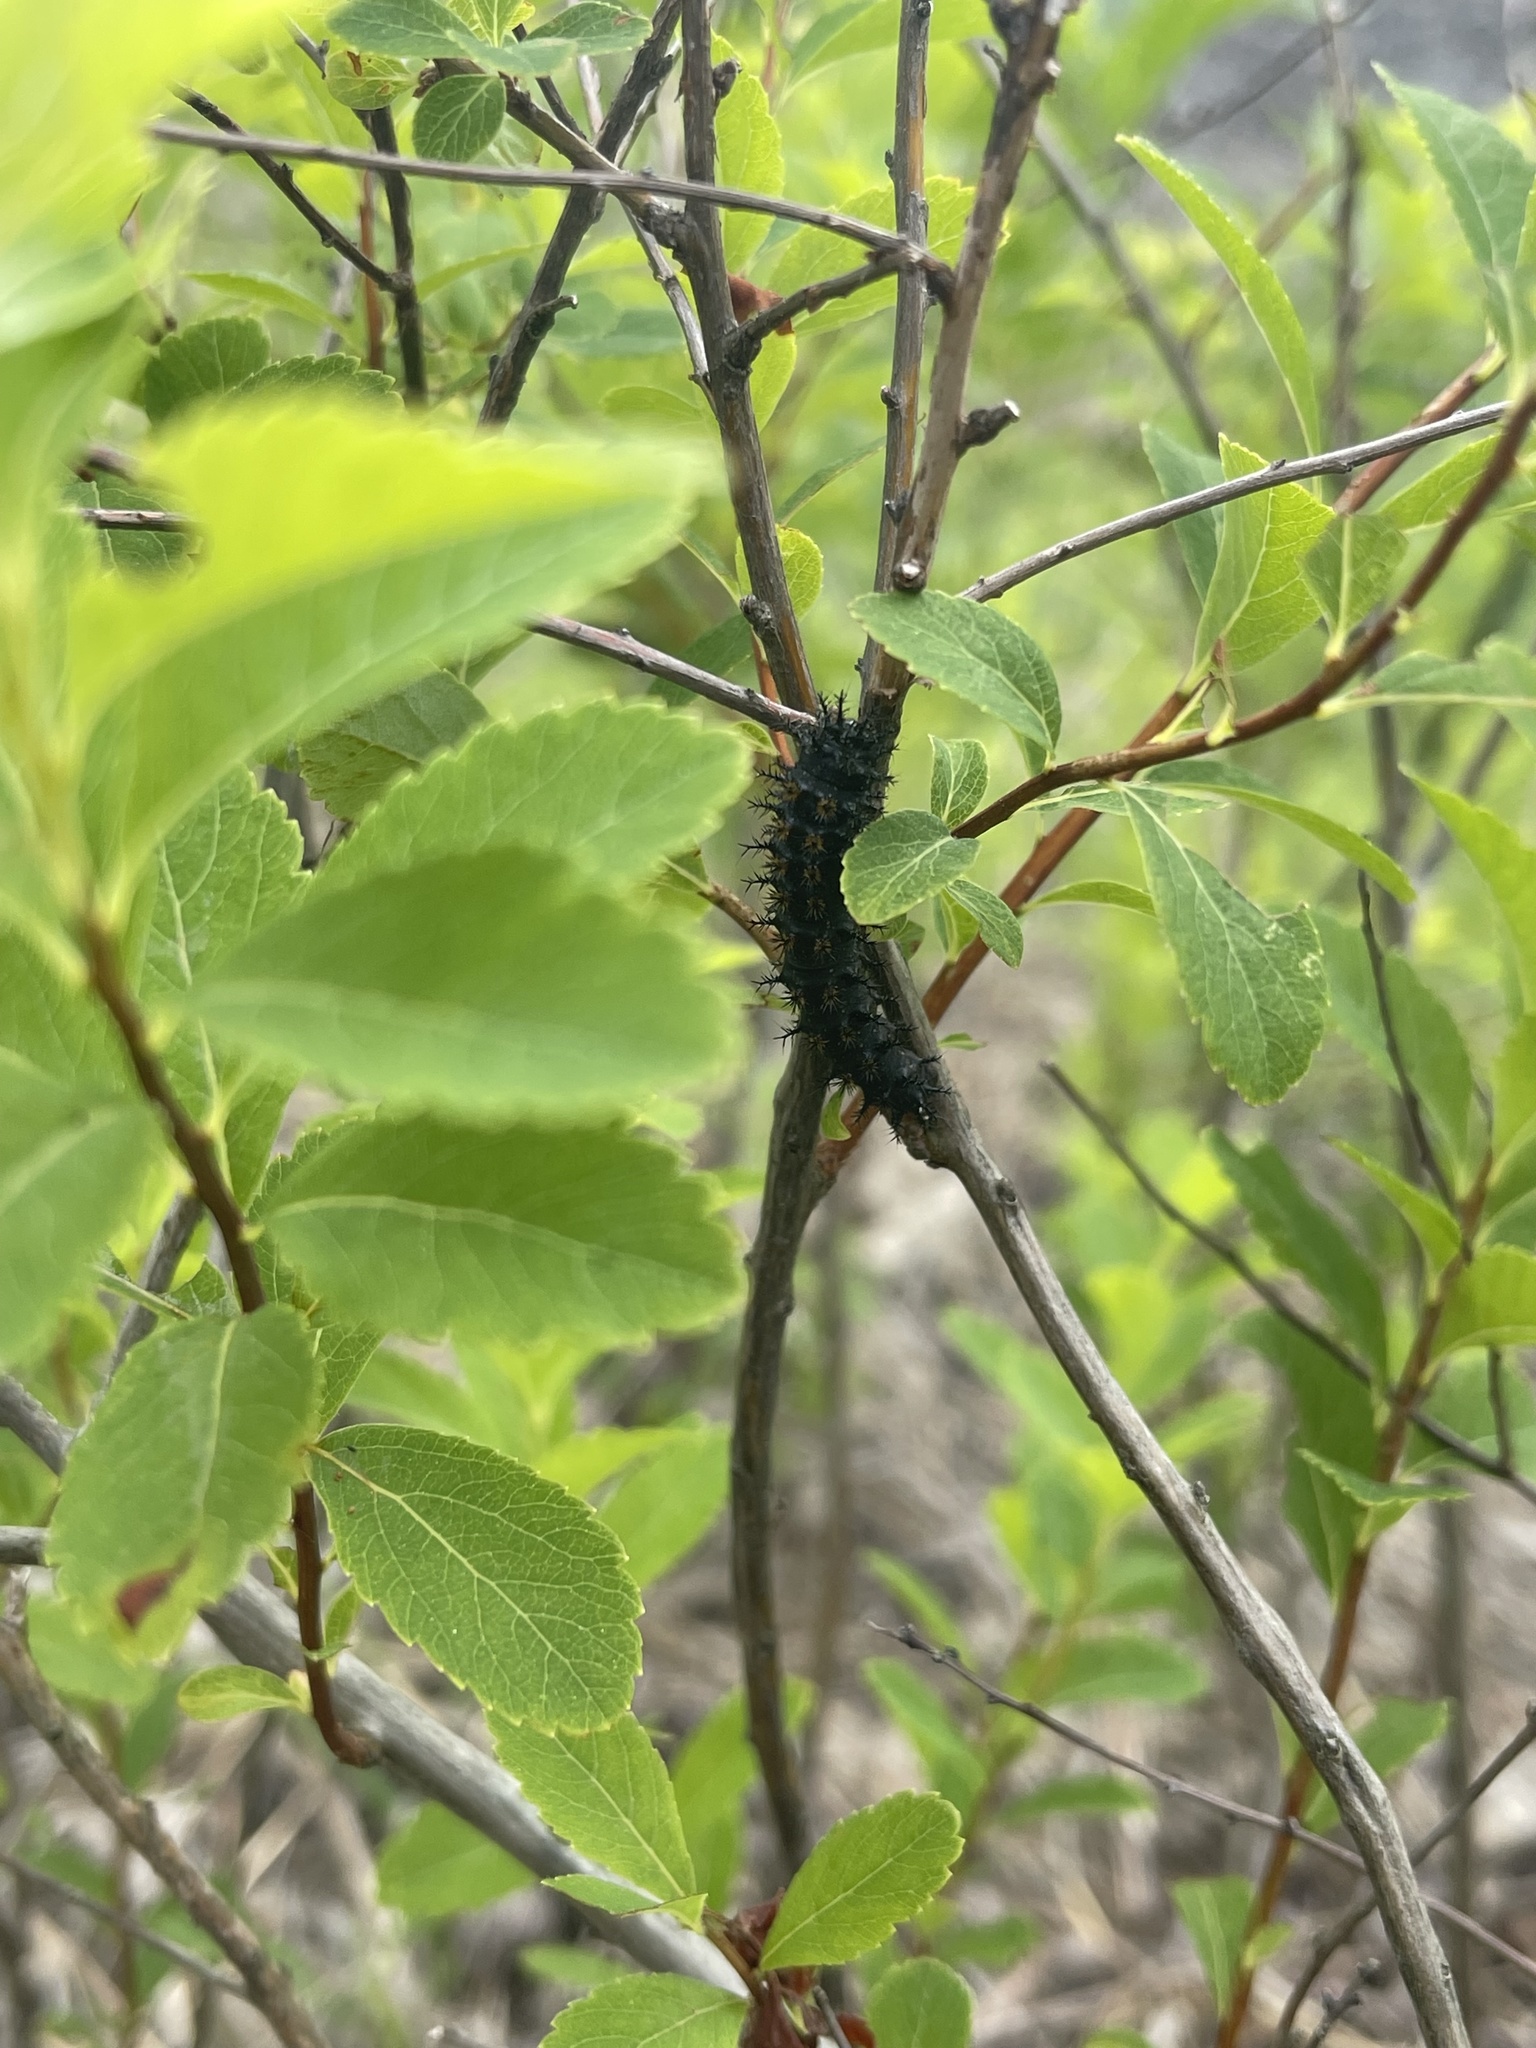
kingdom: Animalia
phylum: Arthropoda
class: Insecta
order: Lepidoptera
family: Saturniidae
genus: Hemileuca
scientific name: Hemileuca lucina
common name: New england buckmoth
